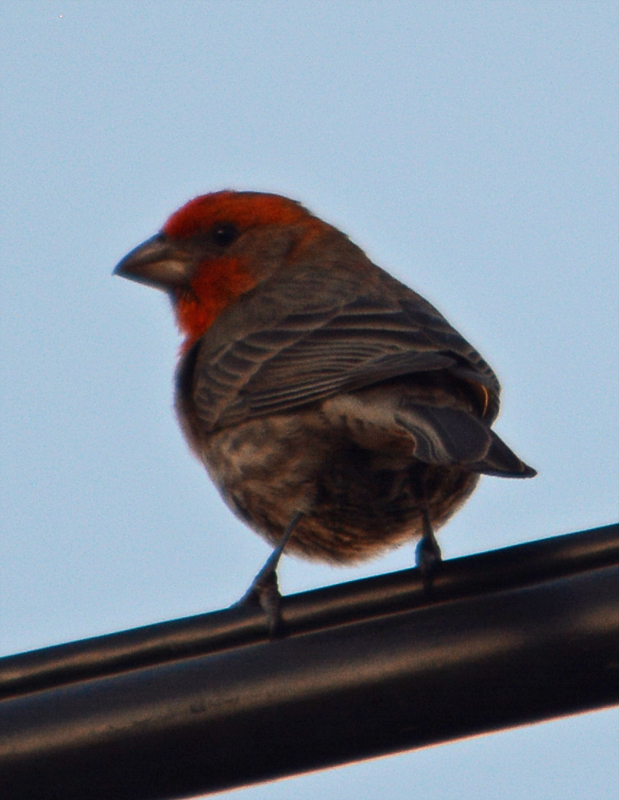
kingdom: Animalia
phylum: Chordata
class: Aves
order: Passeriformes
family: Fringillidae
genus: Haemorhous
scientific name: Haemorhous mexicanus
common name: House finch
